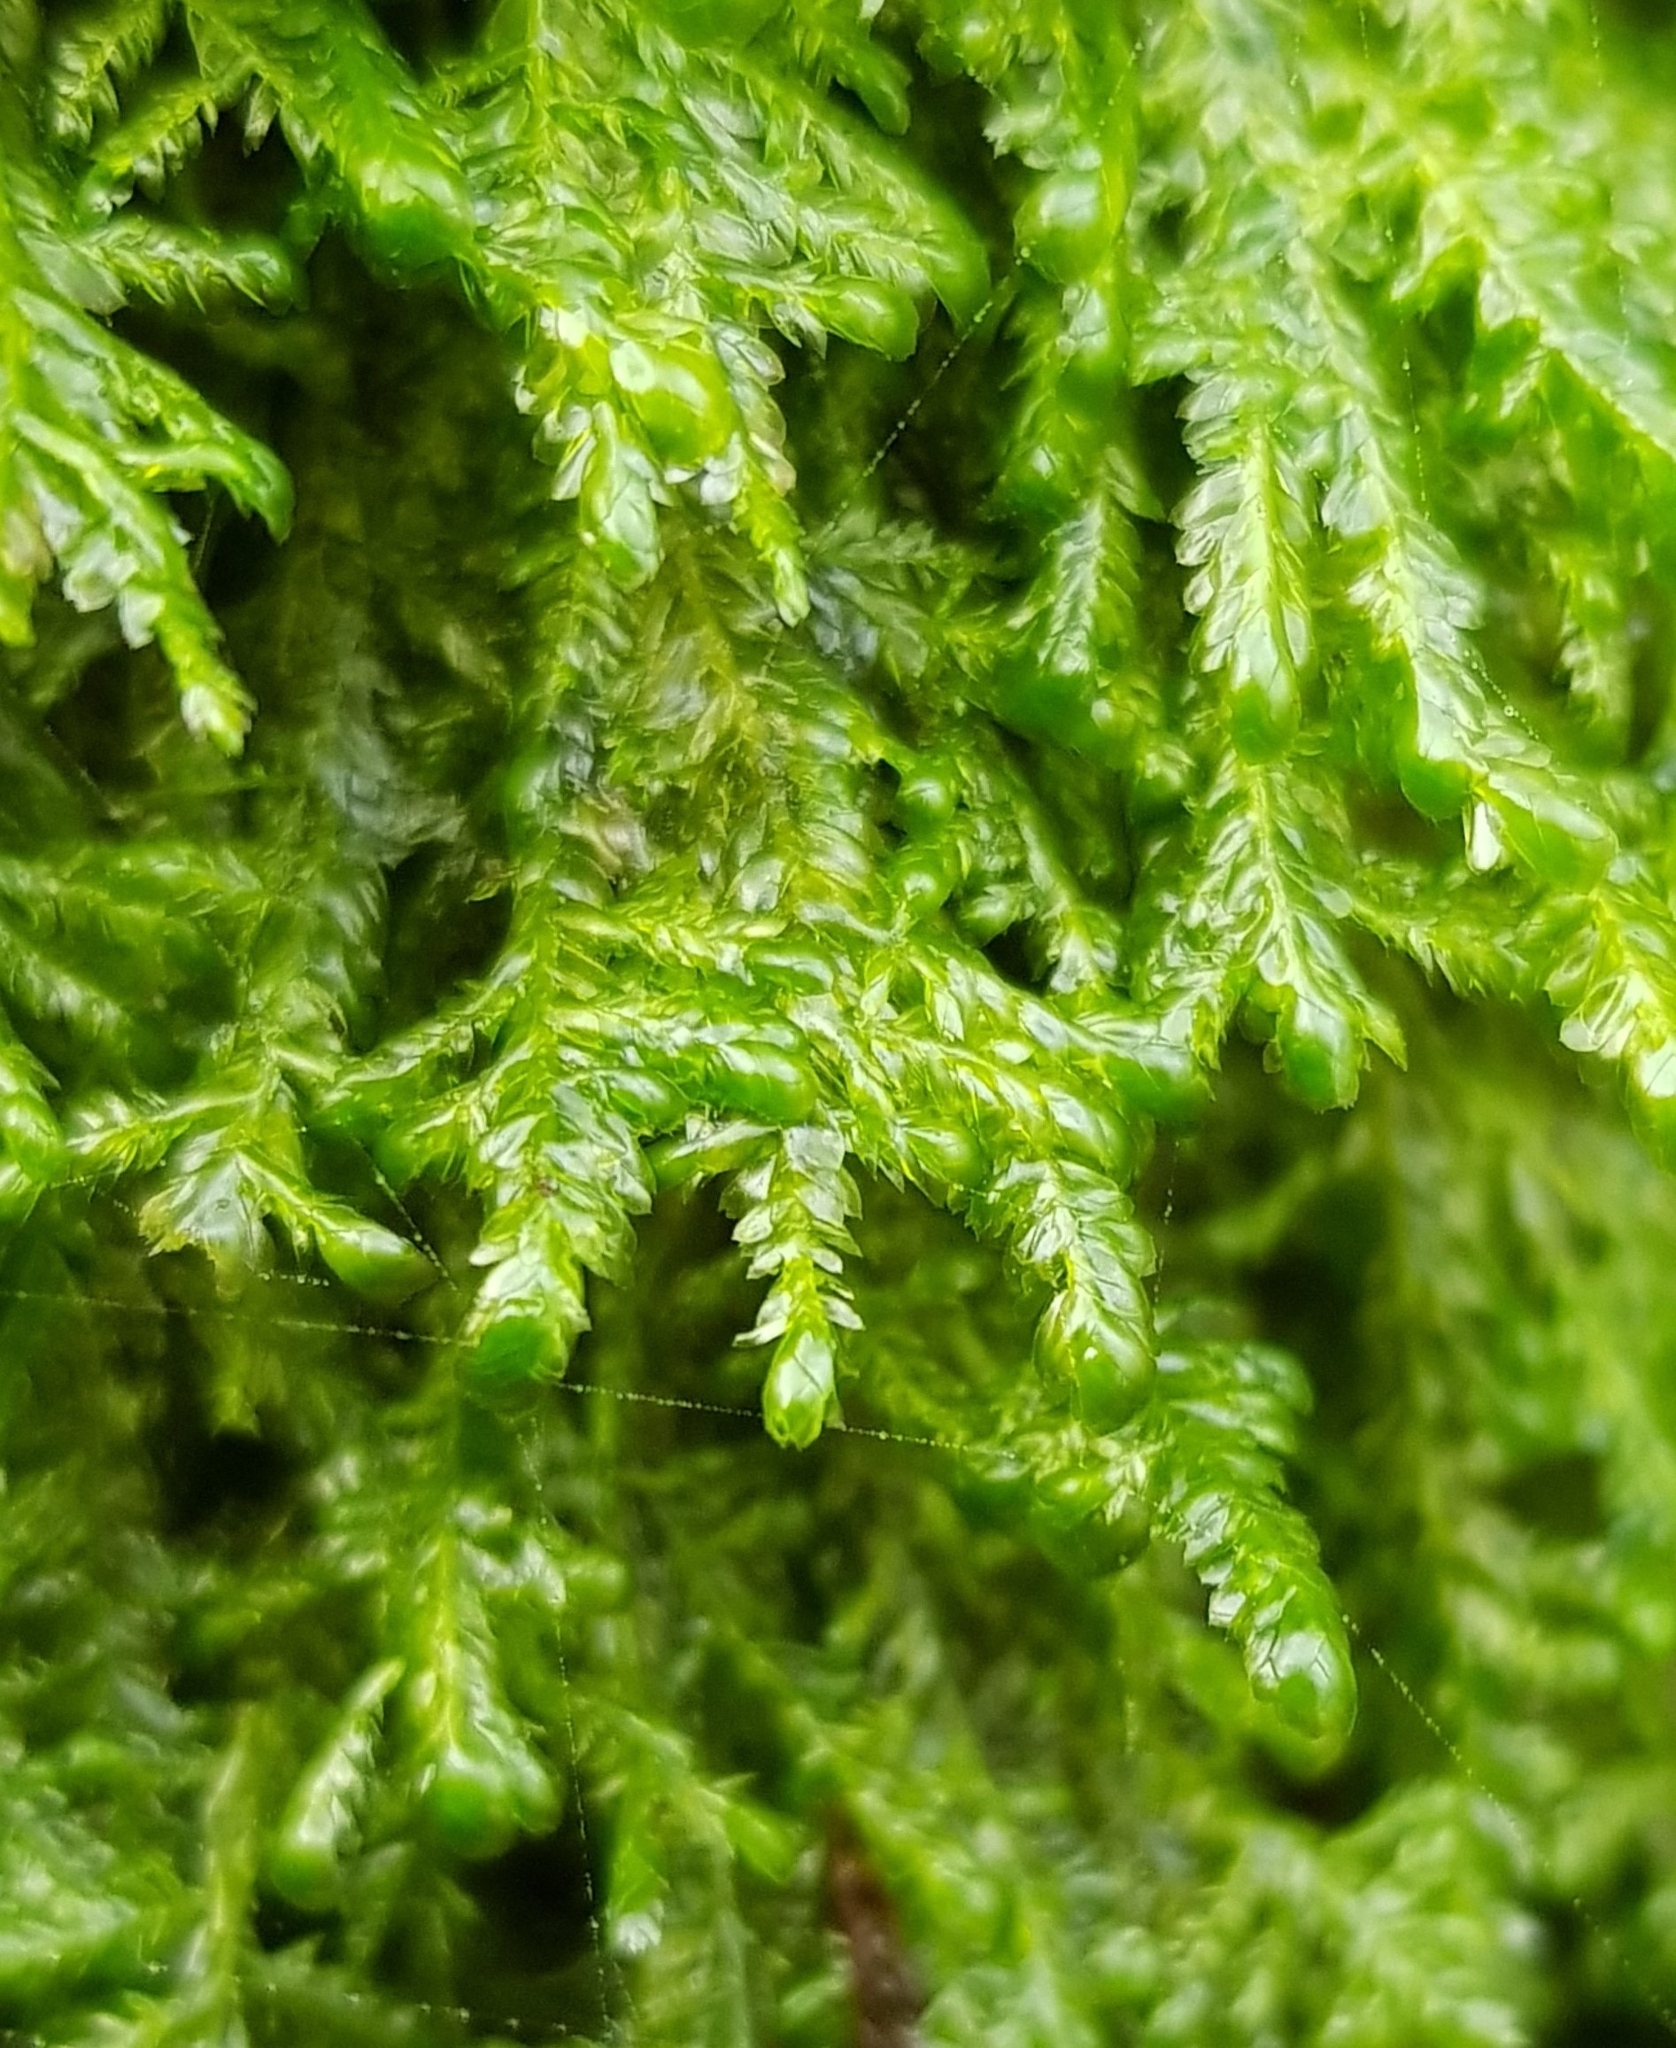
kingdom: Plantae
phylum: Bryophyta
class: Bryopsida
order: Hypnales
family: Neckeraceae
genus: Alleniella
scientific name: Alleniella complanata
